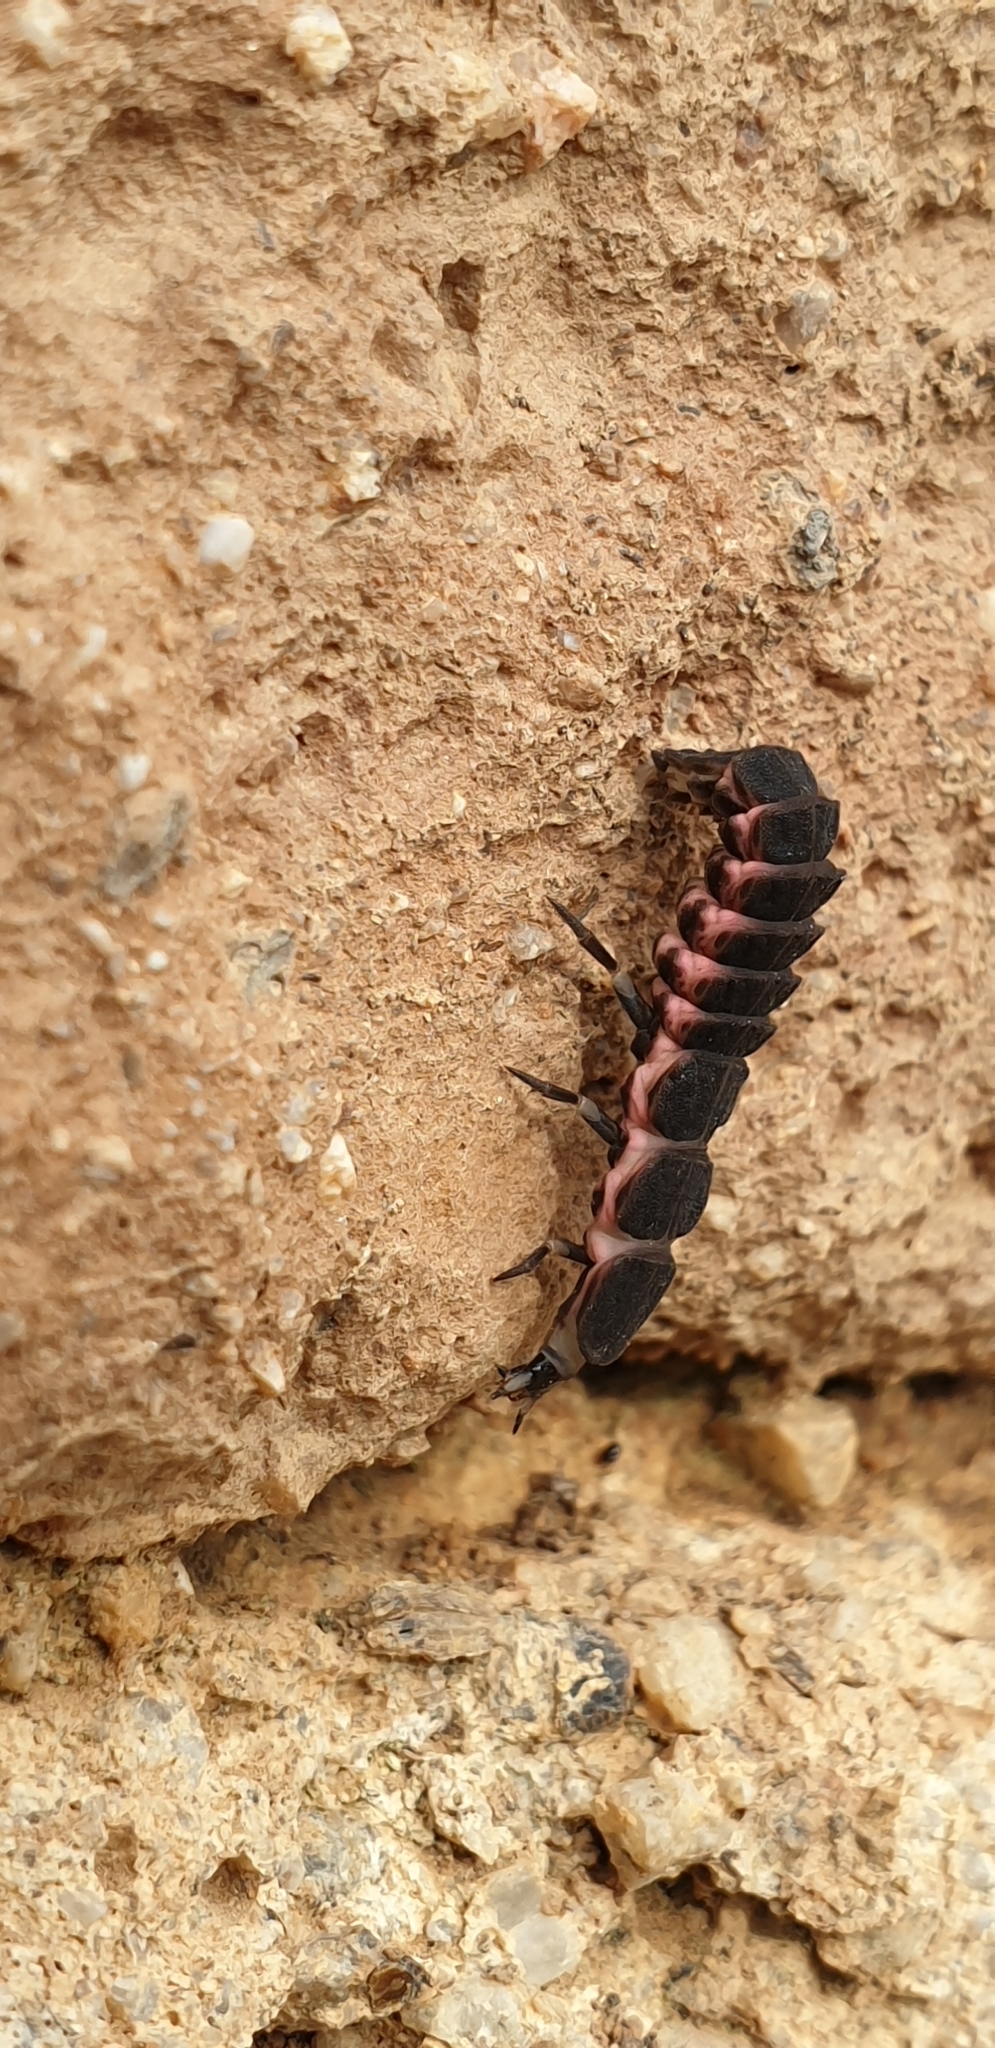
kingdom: Animalia
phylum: Arthropoda
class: Insecta
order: Coleoptera
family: Lampyridae
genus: Nyctophila
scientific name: Nyctophila reichii
